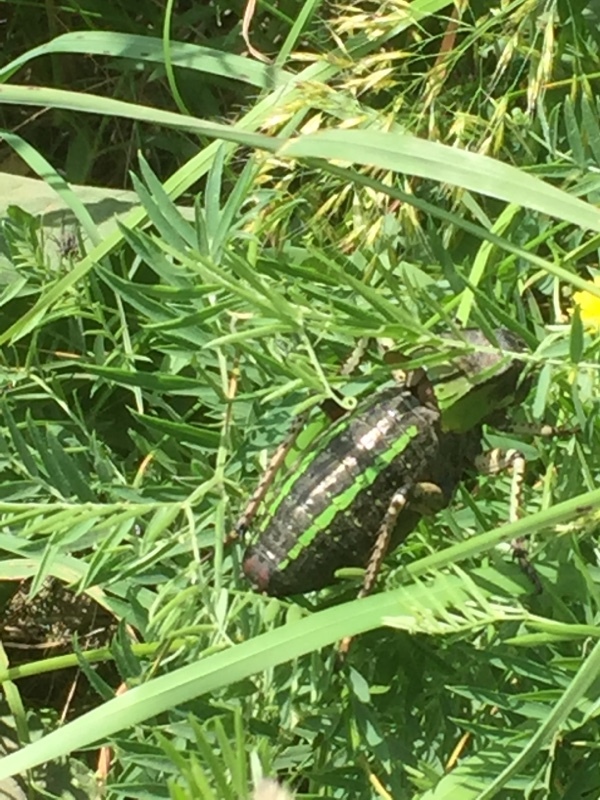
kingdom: Animalia
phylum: Arthropoda
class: Insecta
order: Orthoptera
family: Tettigoniidae
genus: Bradyporus
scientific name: Bradyporus latipes
